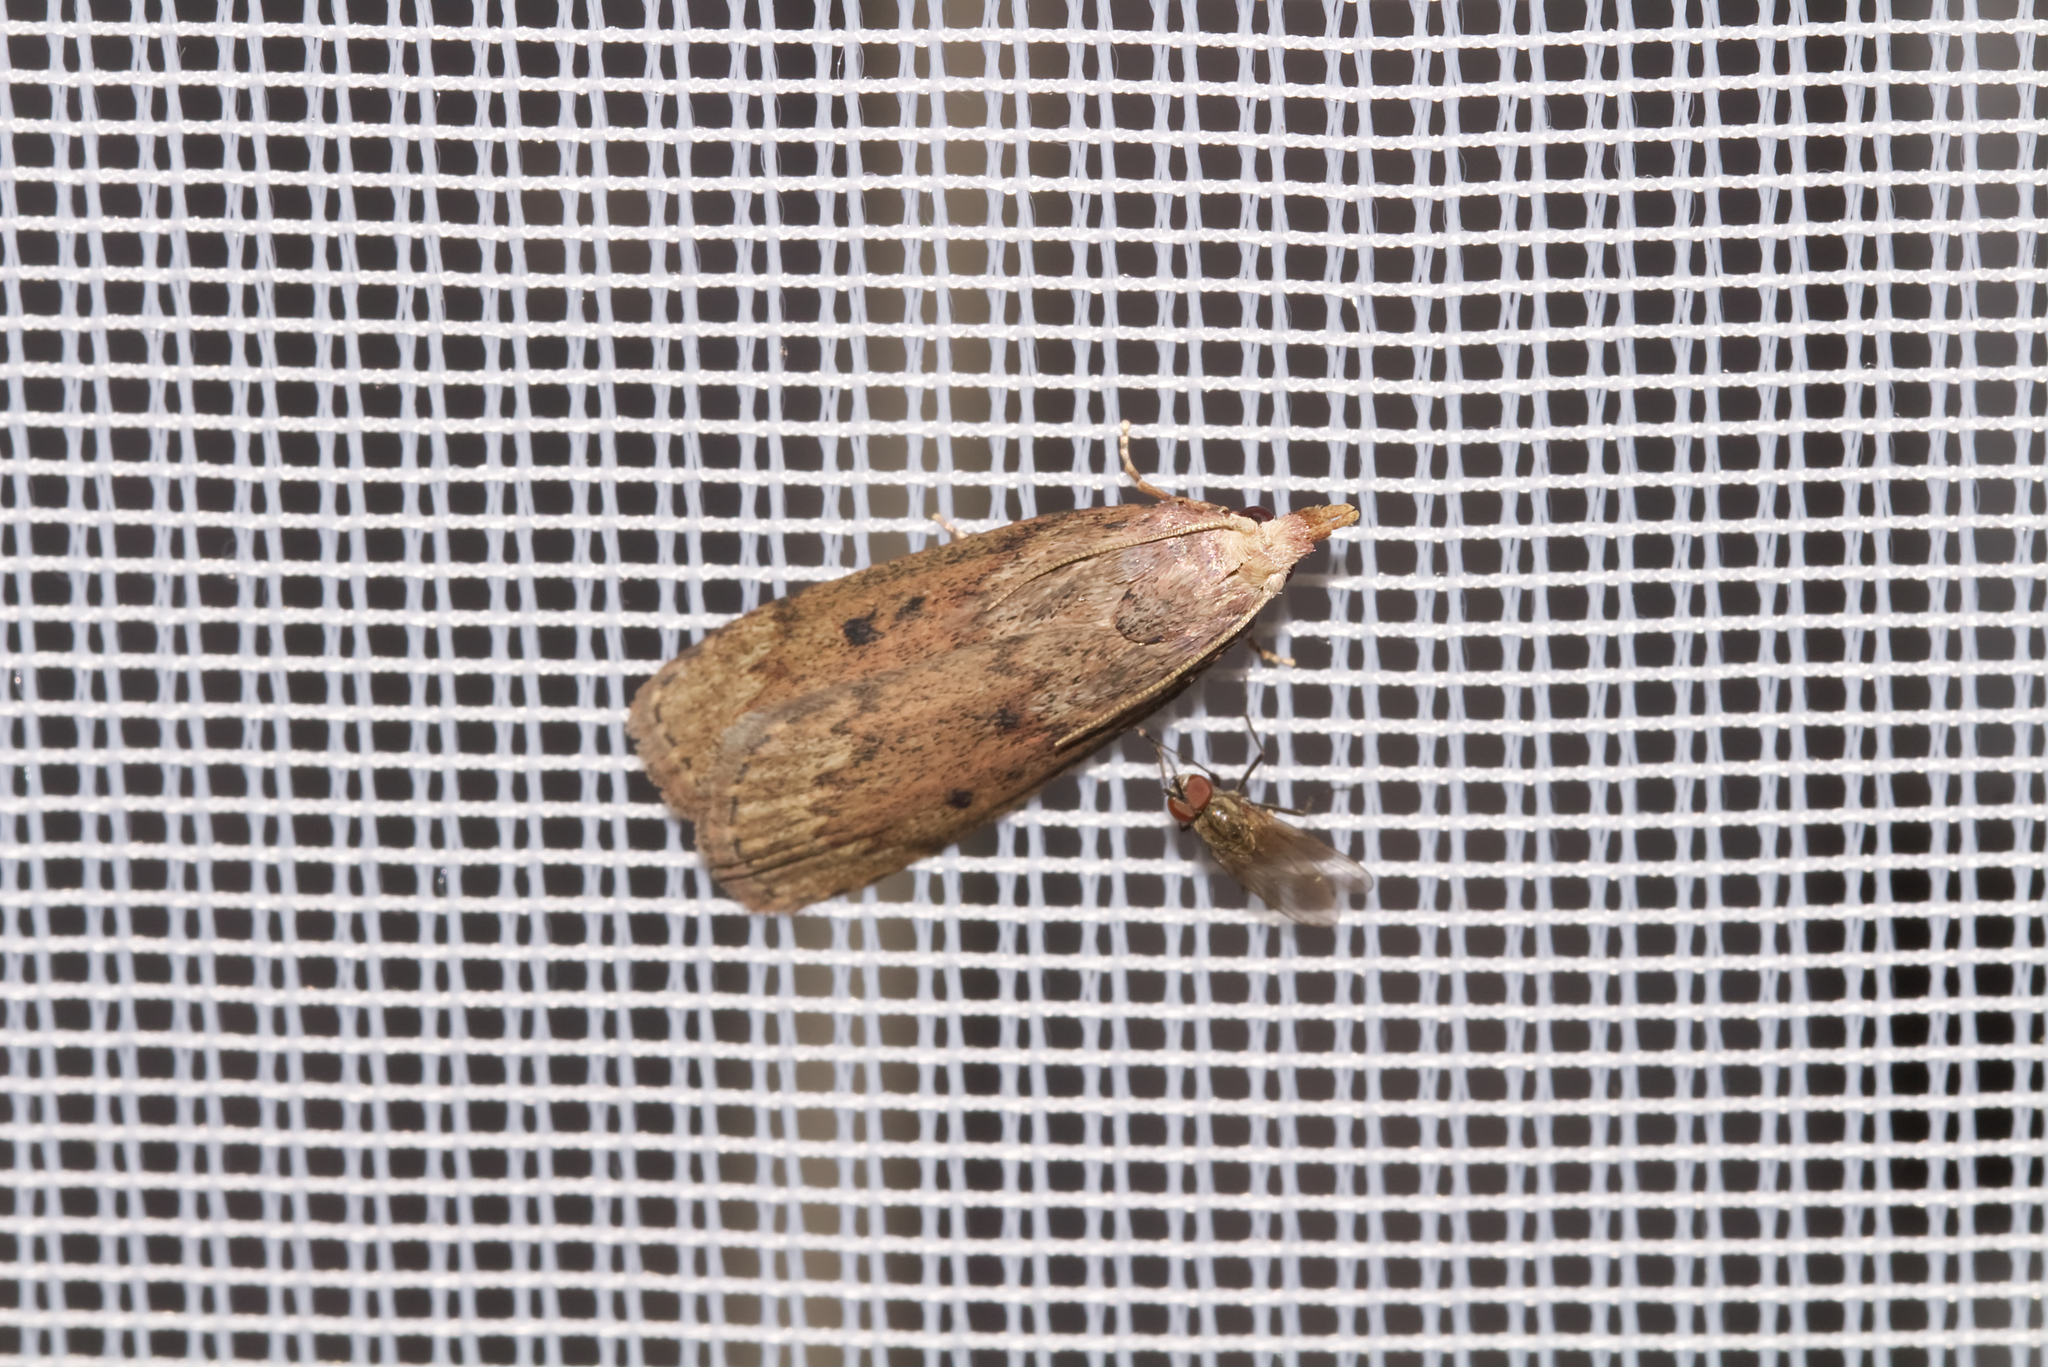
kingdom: Animalia
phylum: Arthropoda
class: Insecta
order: Lepidoptera
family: Pyralidae
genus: Aphomia
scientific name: Aphomia sociella
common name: Bee moth
